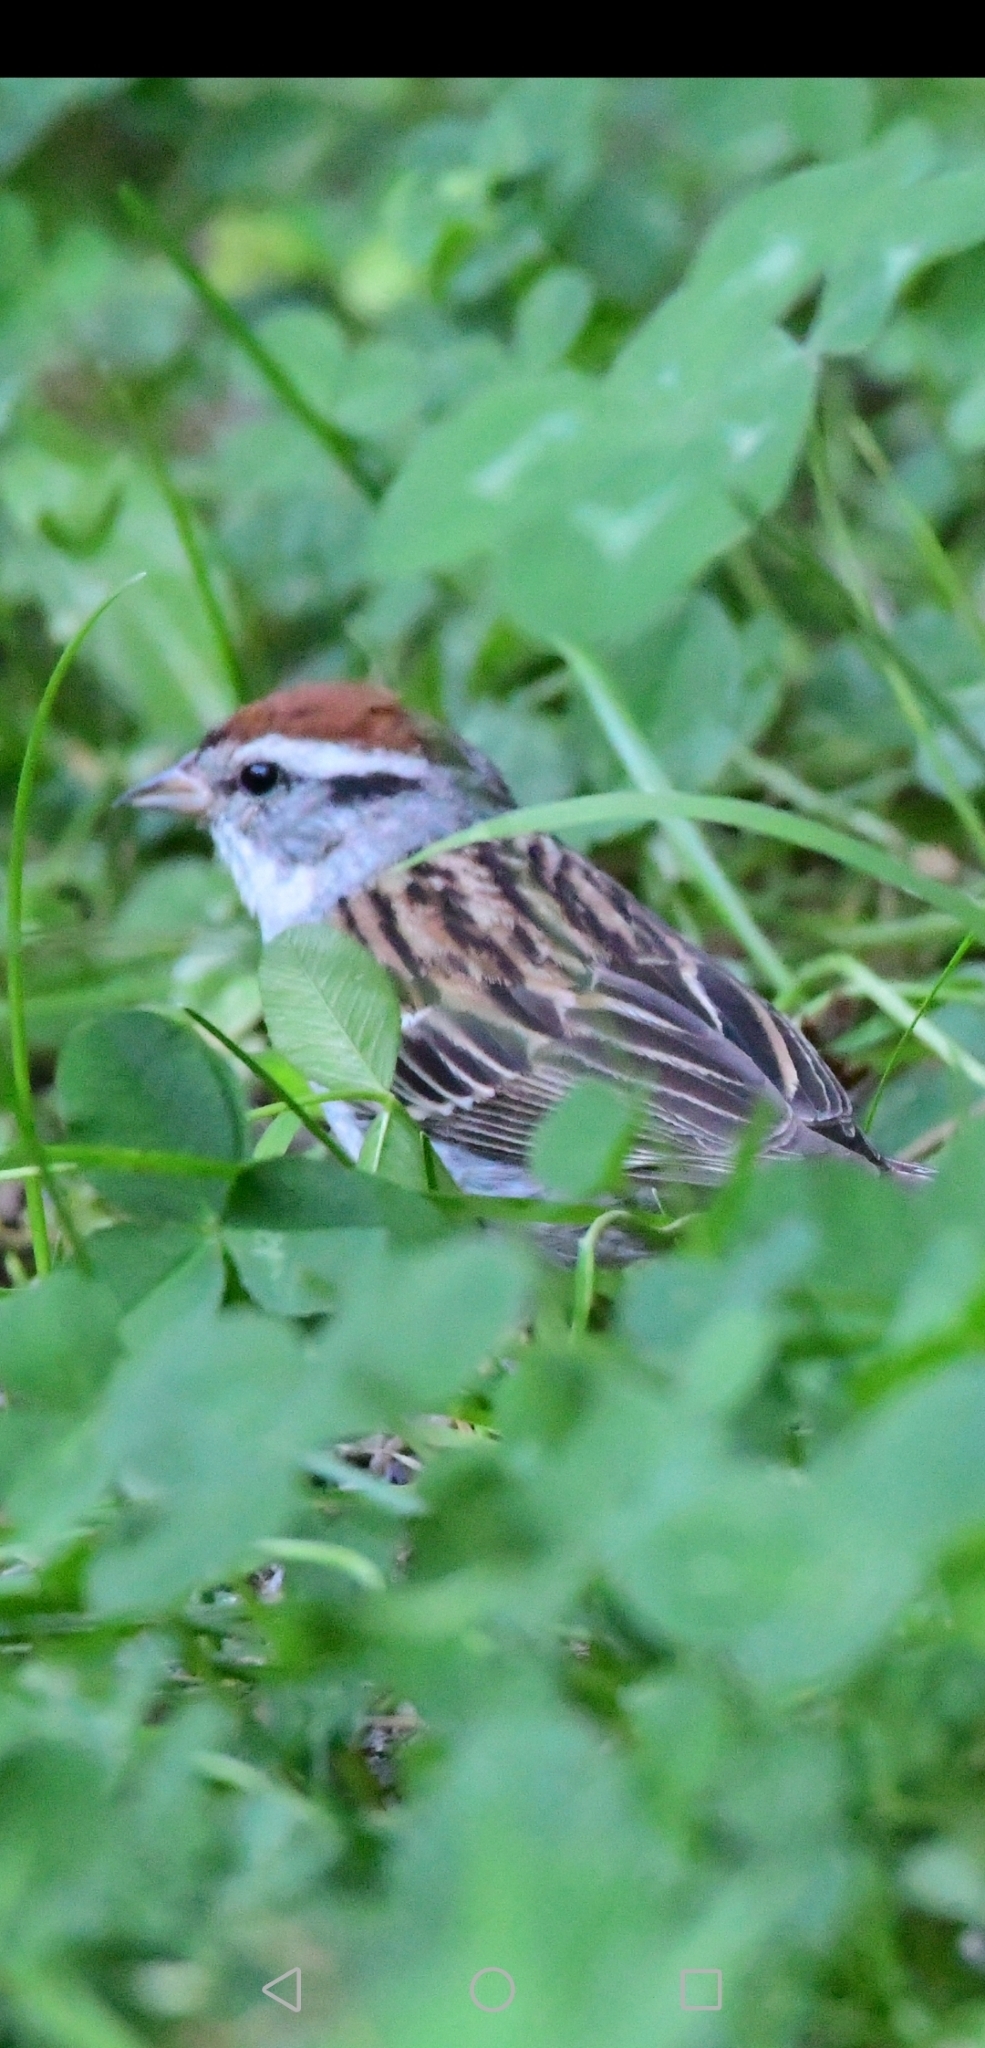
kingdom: Animalia
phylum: Chordata
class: Aves
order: Passeriformes
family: Passerellidae
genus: Spizella
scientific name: Spizella passerina
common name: Chipping sparrow
